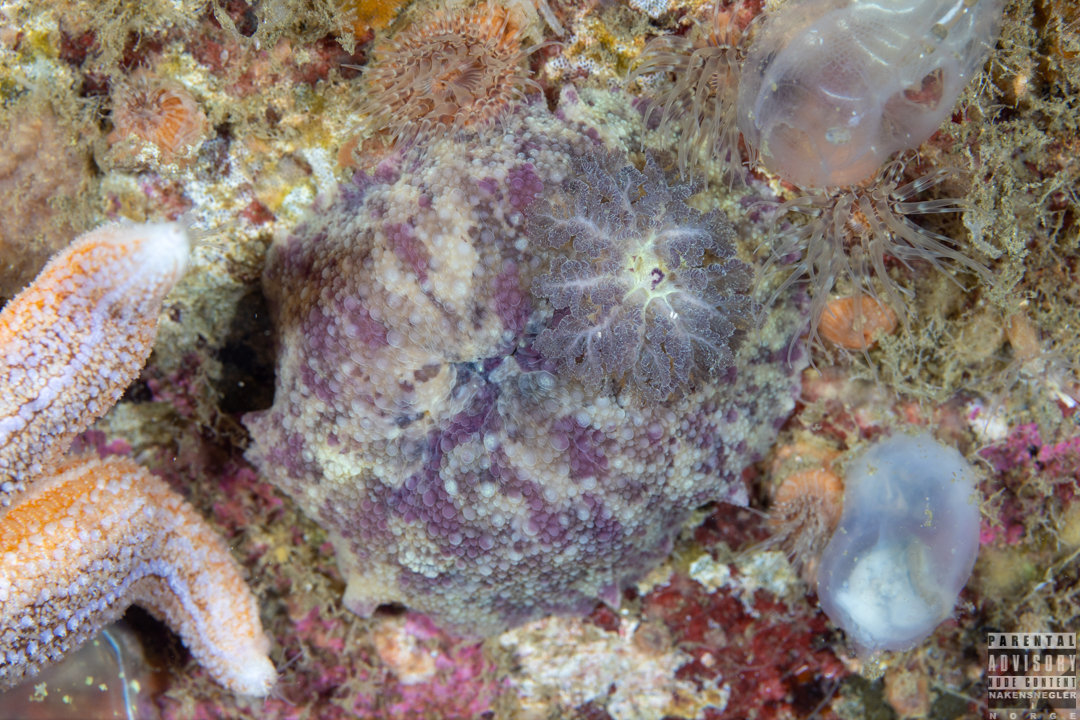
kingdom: Animalia
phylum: Mollusca
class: Gastropoda
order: Nudibranchia
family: Dorididae
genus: Doris
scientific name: Doris pseudoargus
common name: Sea lemon
